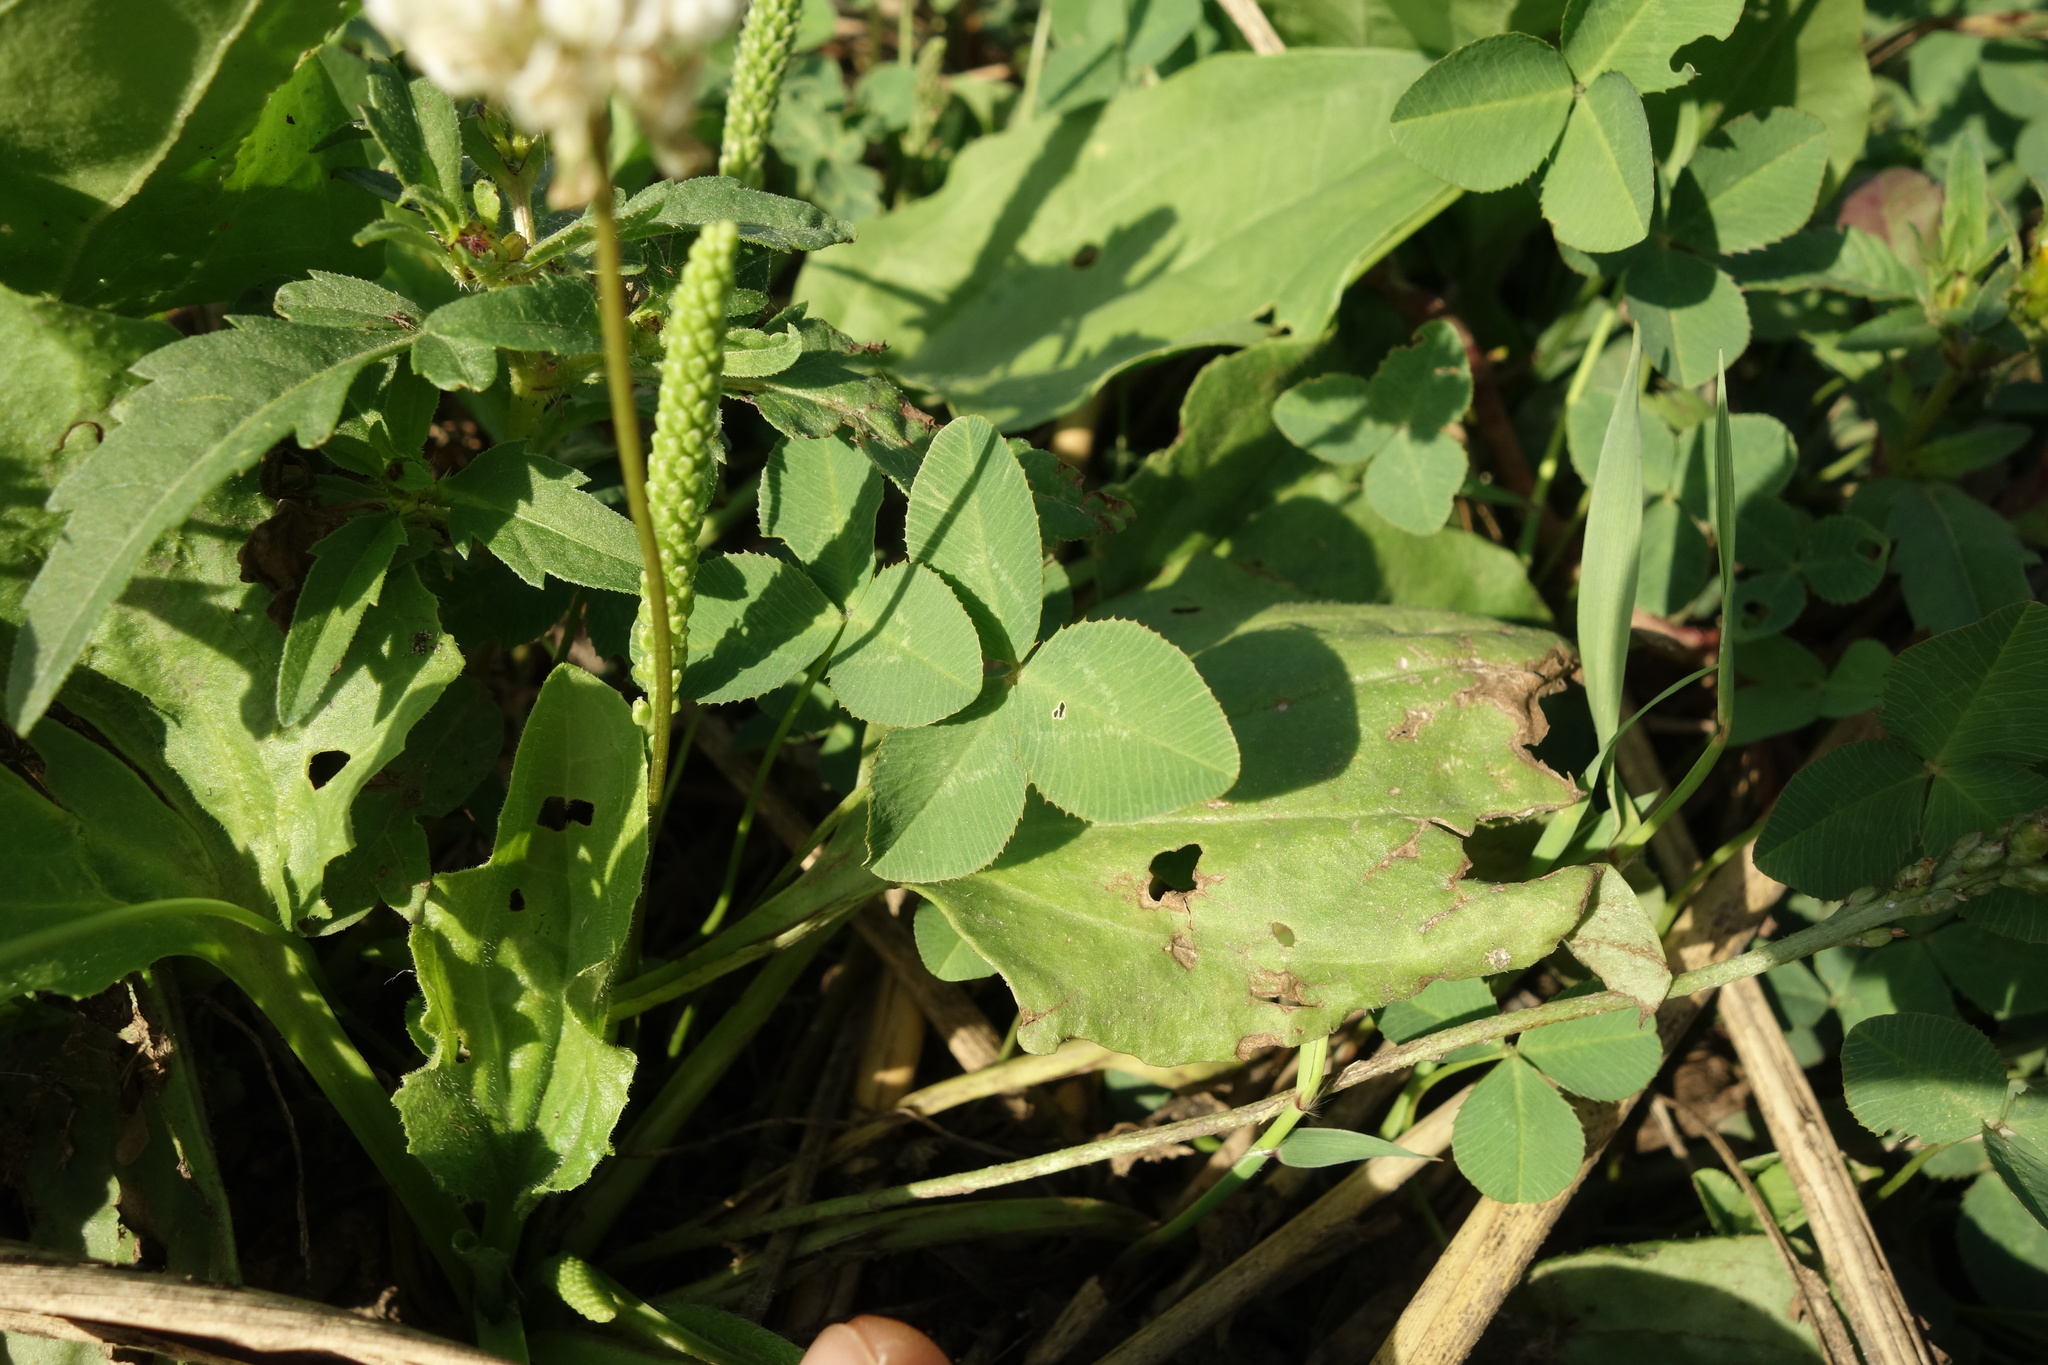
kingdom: Plantae
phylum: Tracheophyta
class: Magnoliopsida
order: Fabales
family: Fabaceae
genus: Trifolium
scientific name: Trifolium repens
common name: White clover
